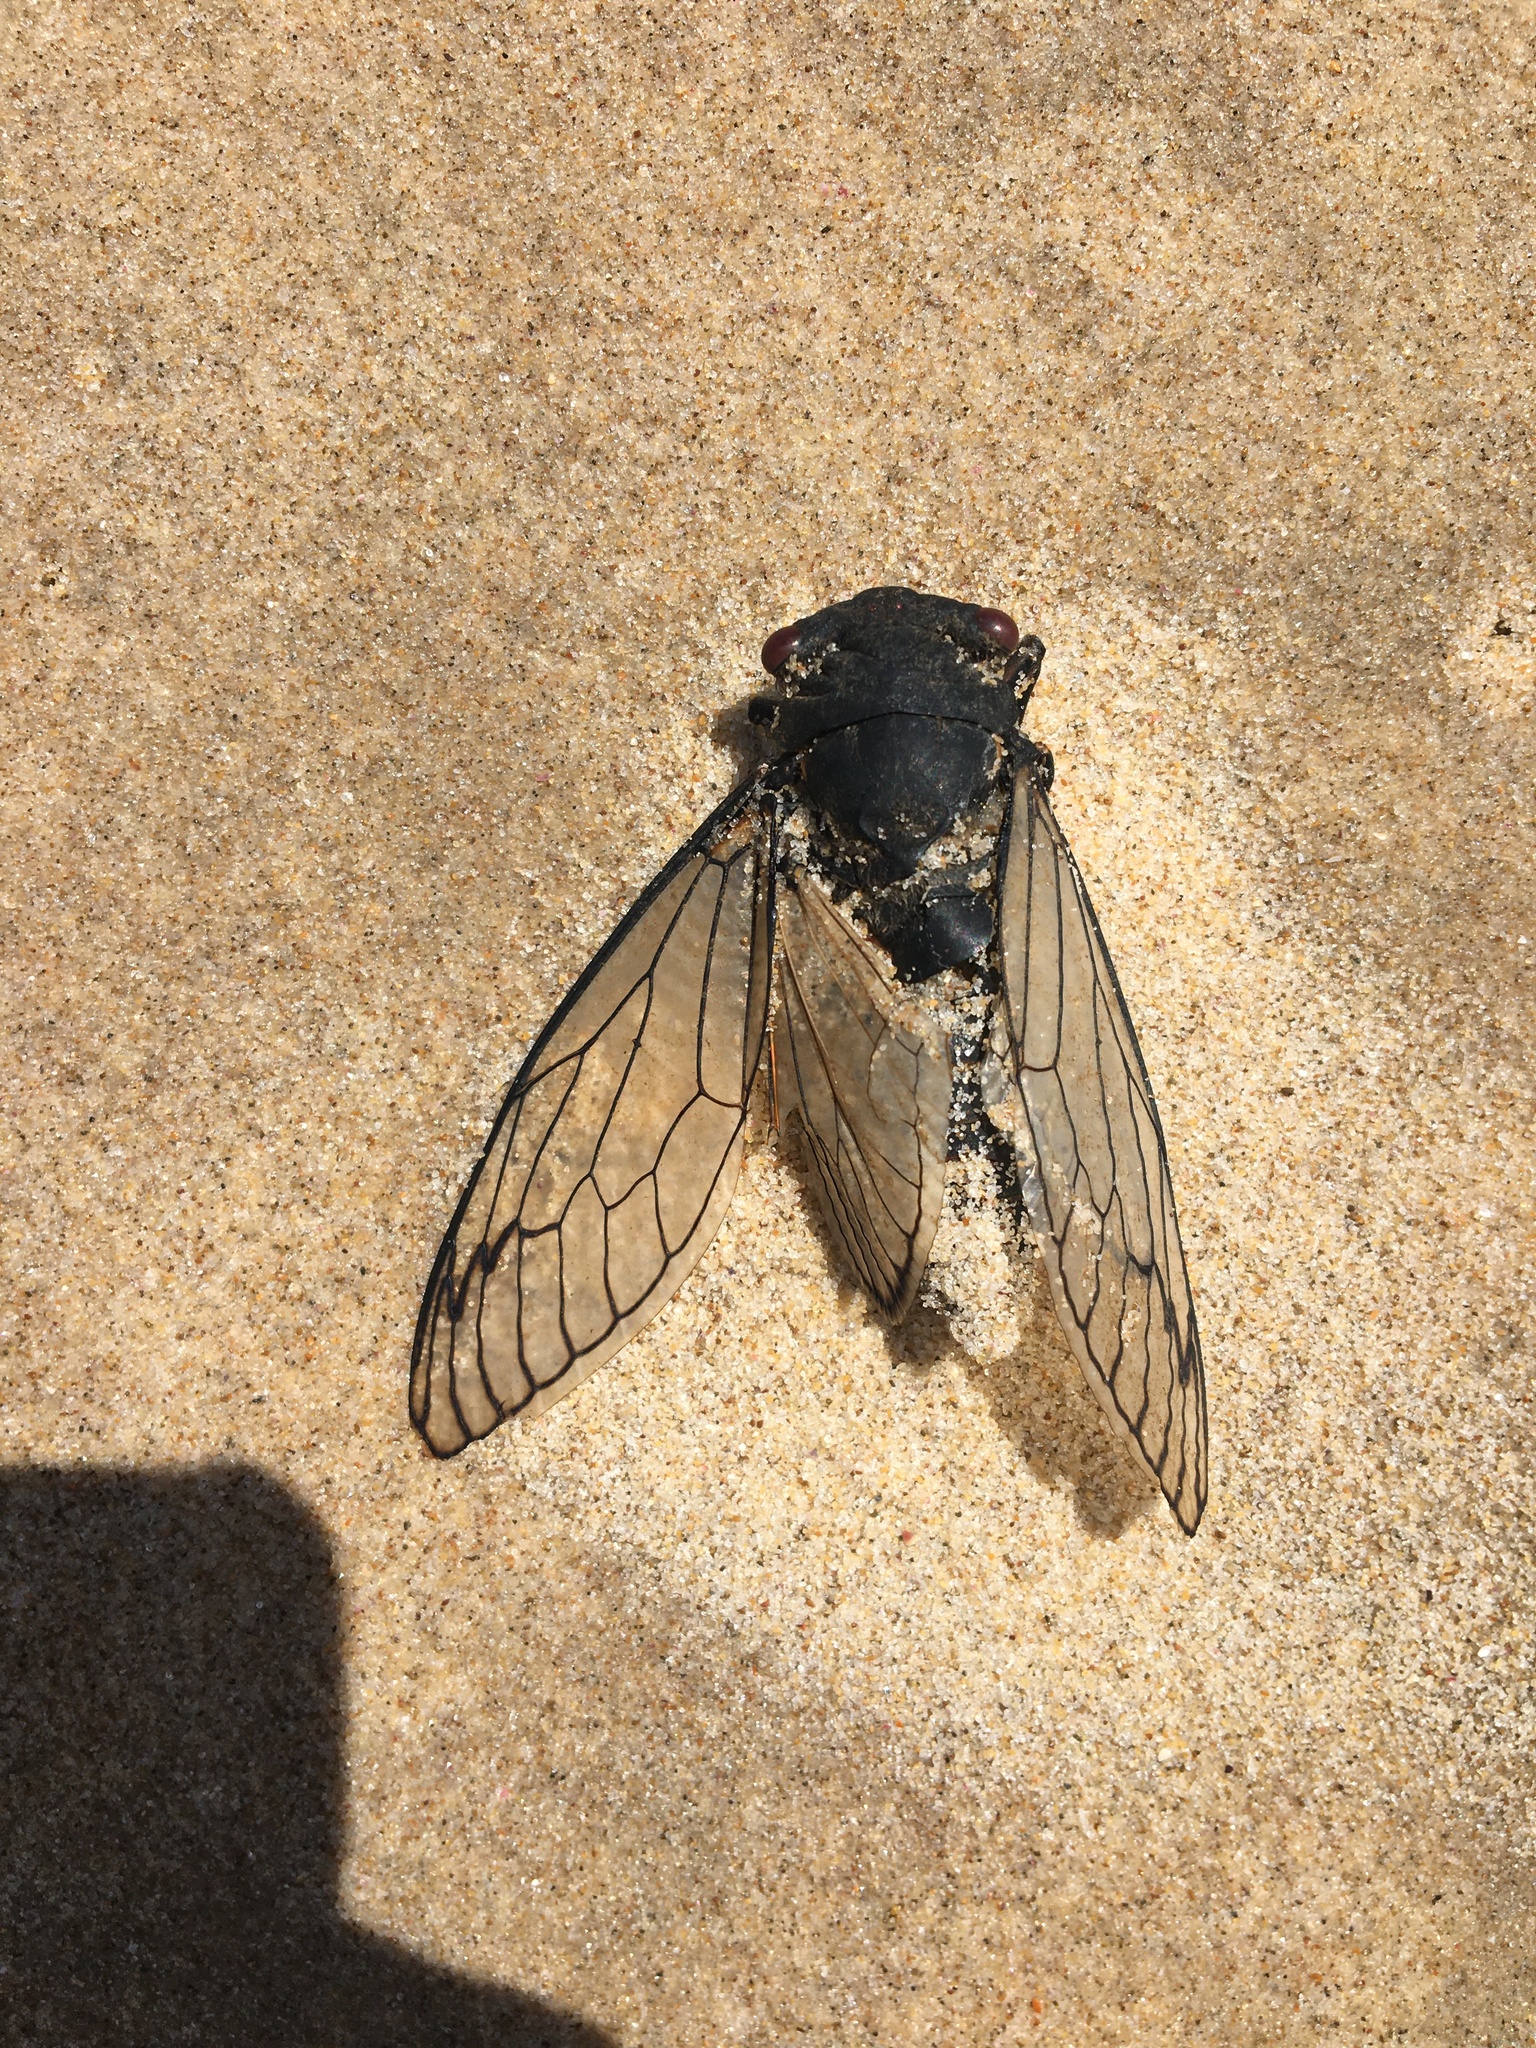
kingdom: Animalia
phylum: Arthropoda
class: Insecta
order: Hemiptera
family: Cicadidae
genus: Psaltoda
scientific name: Psaltoda moerens
